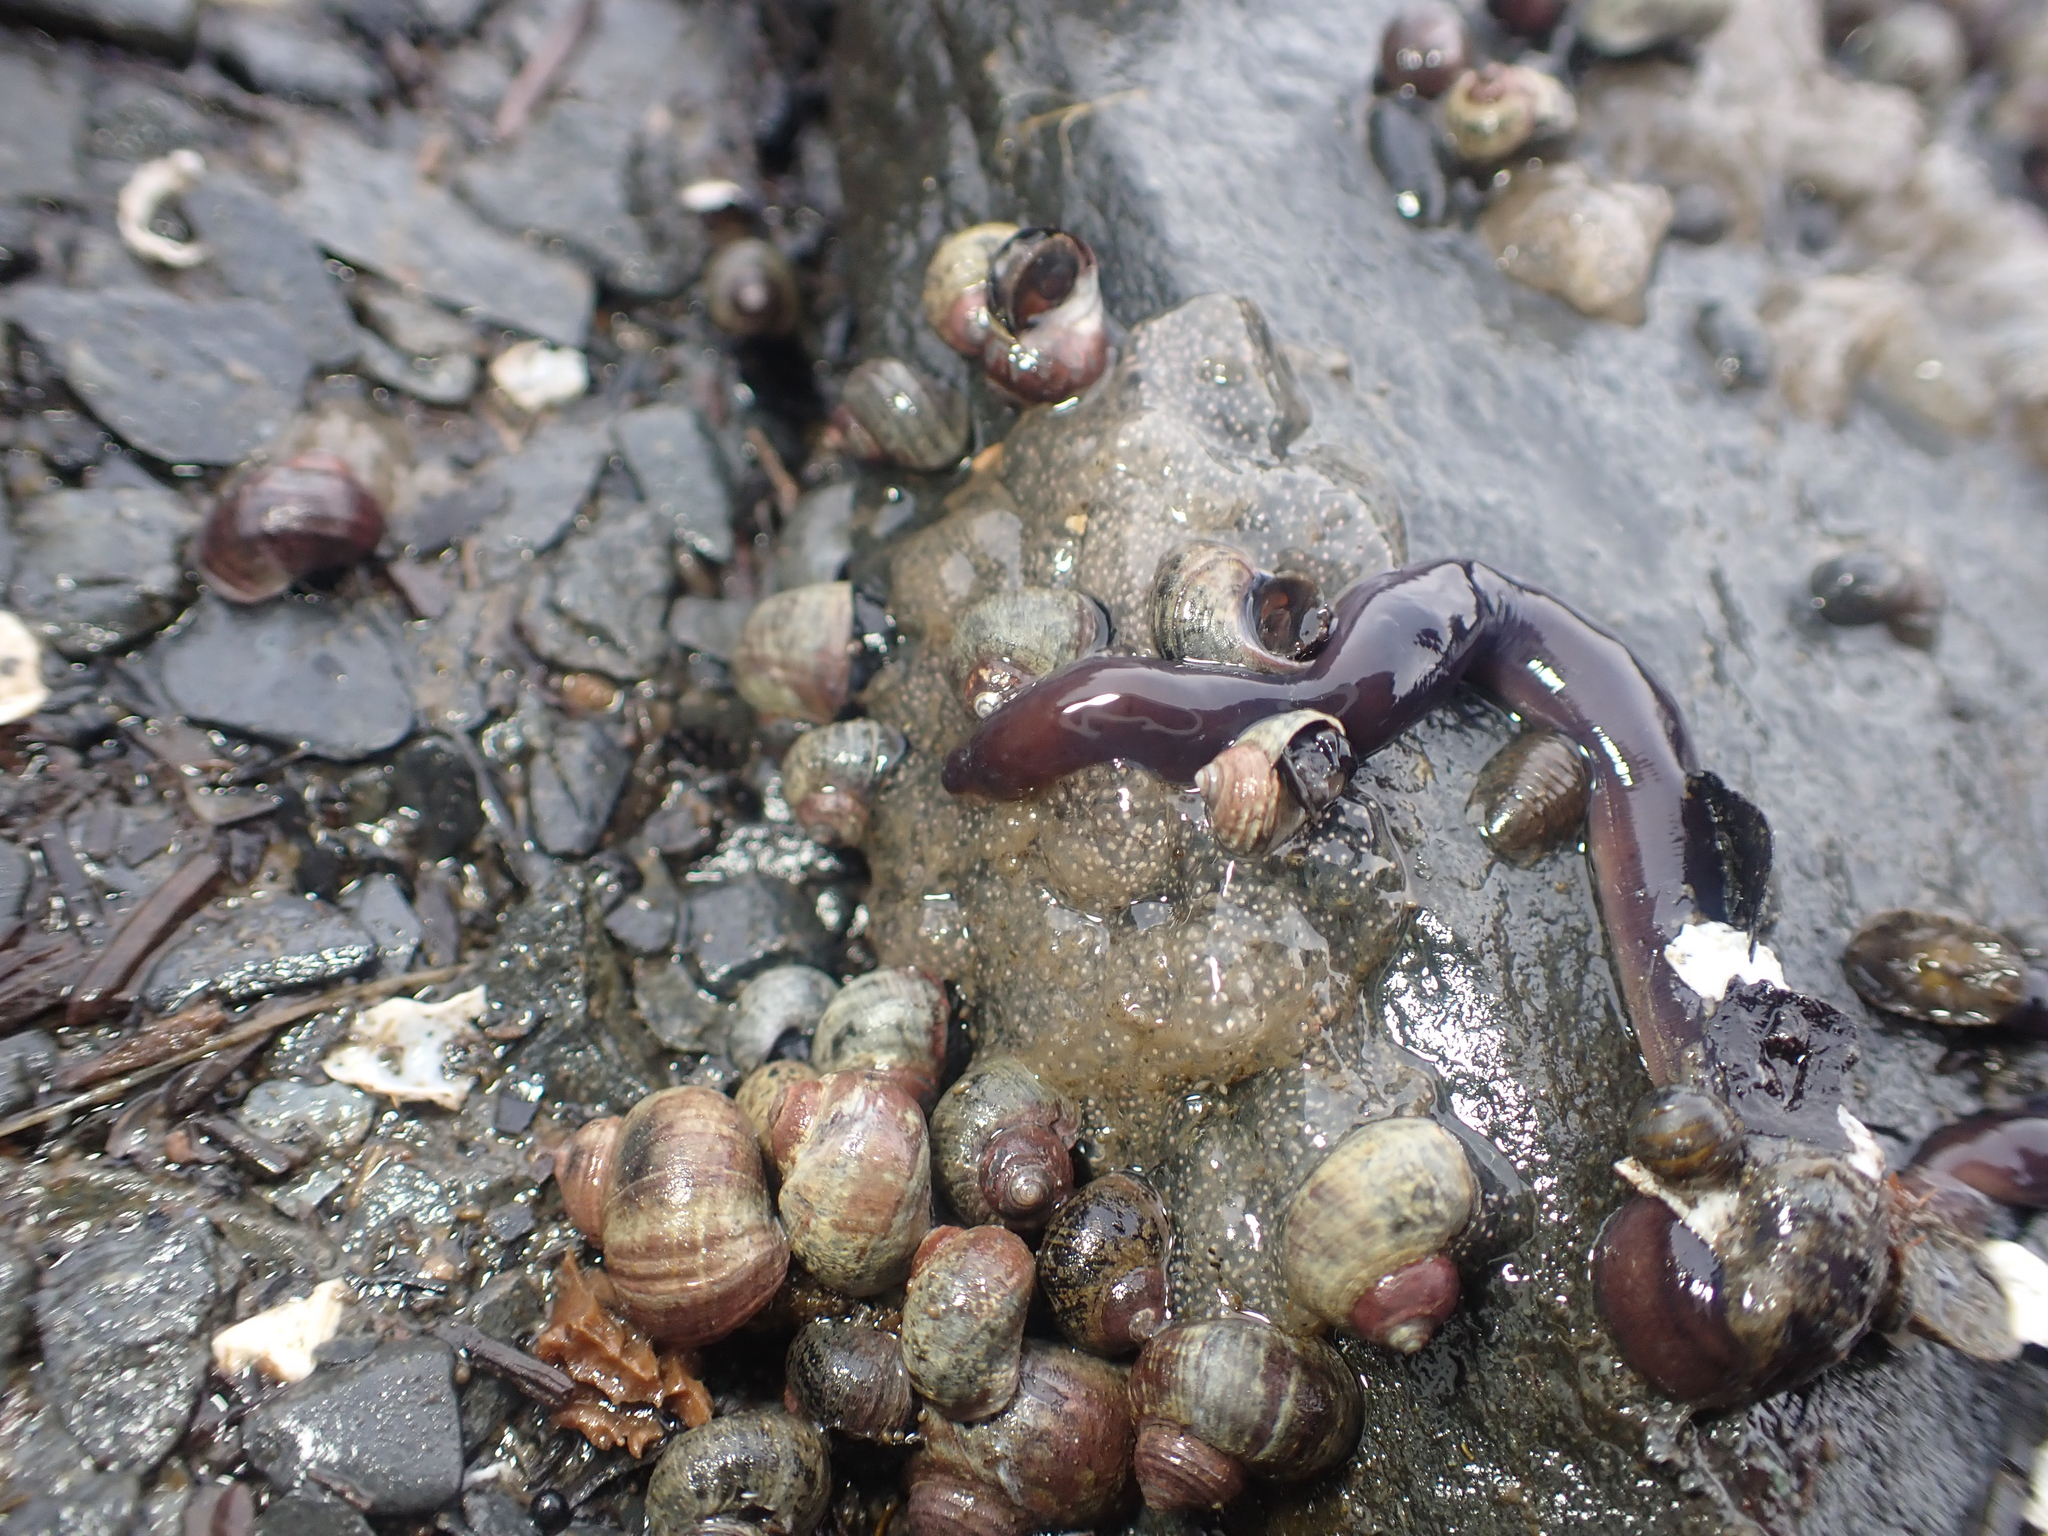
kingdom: Animalia
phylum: Nemertea
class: Hoplonemertea
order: Monostilifera
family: Neesiidae
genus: Paranemertes
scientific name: Paranemertes peregrina
